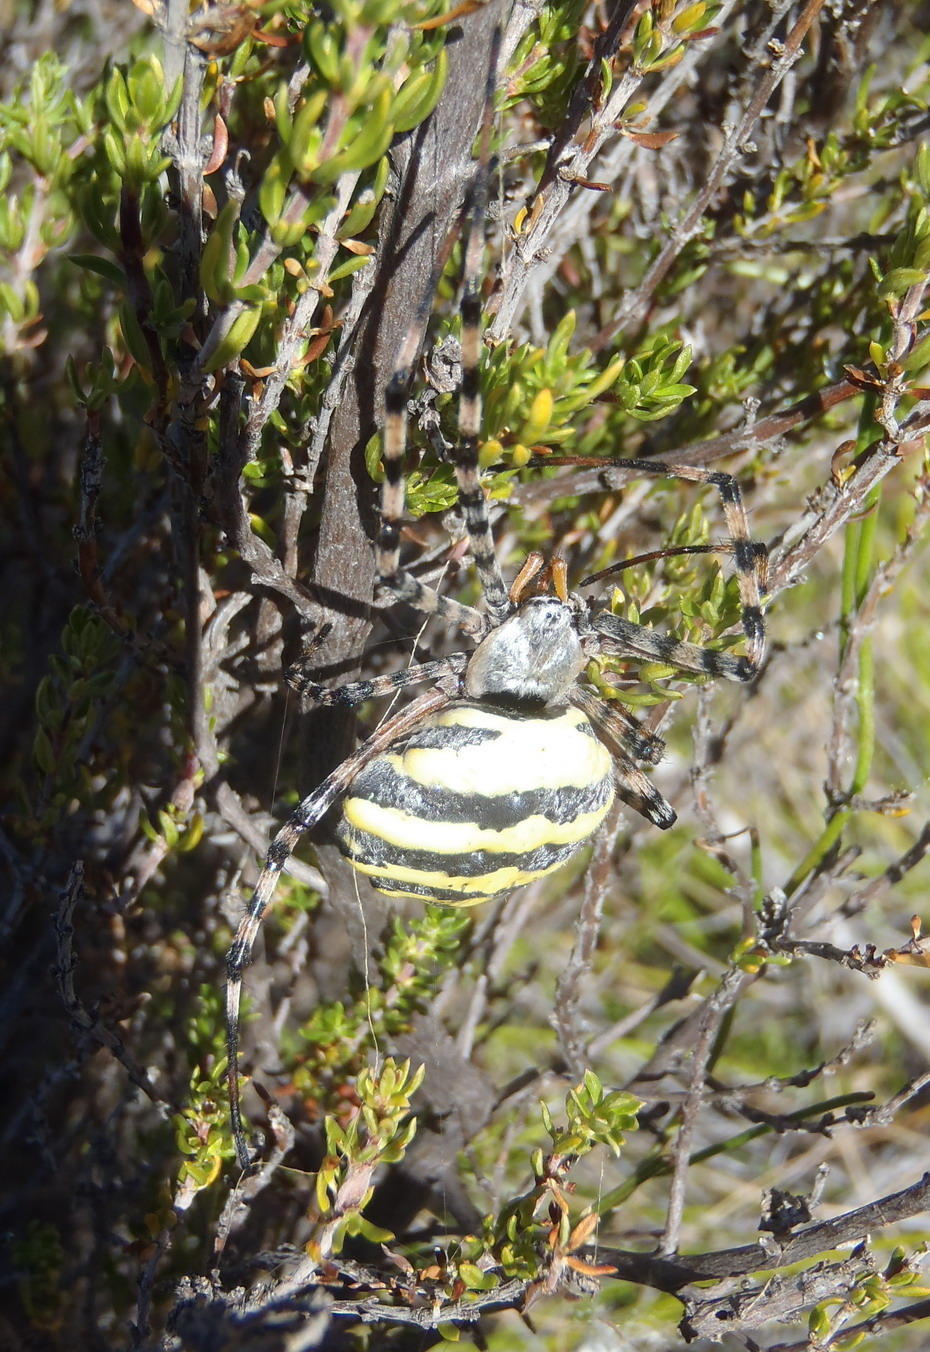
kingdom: Animalia
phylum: Arthropoda
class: Arachnida
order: Araneae
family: Araneidae
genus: Argiope
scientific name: Argiope australis
